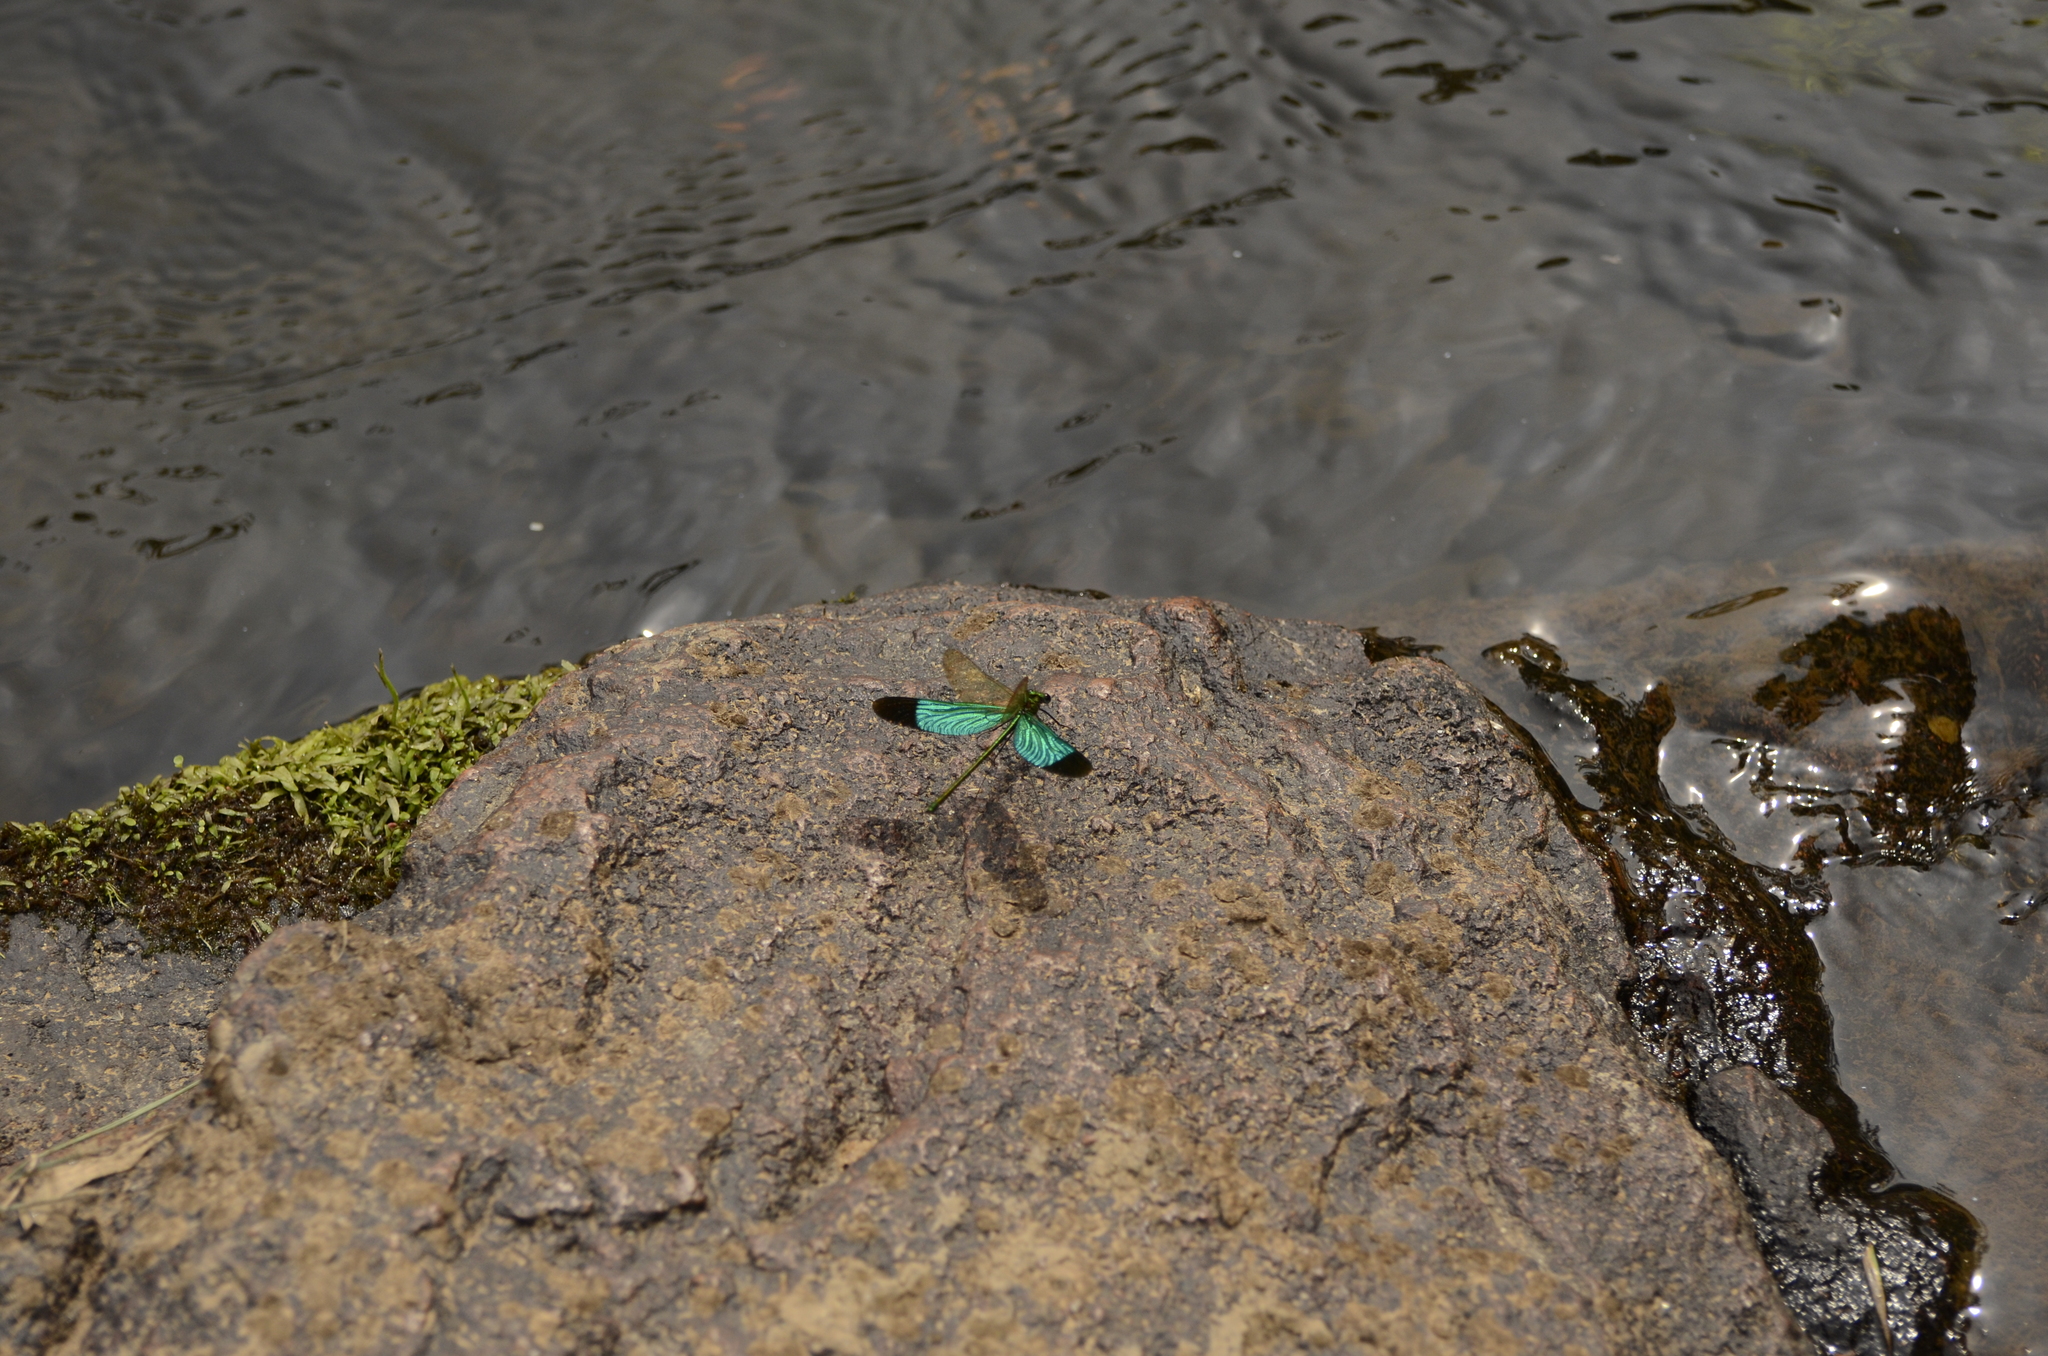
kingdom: Animalia
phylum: Arthropoda
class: Insecta
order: Odonata
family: Calopterygidae
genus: Neurobasis
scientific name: Neurobasis chinensis
